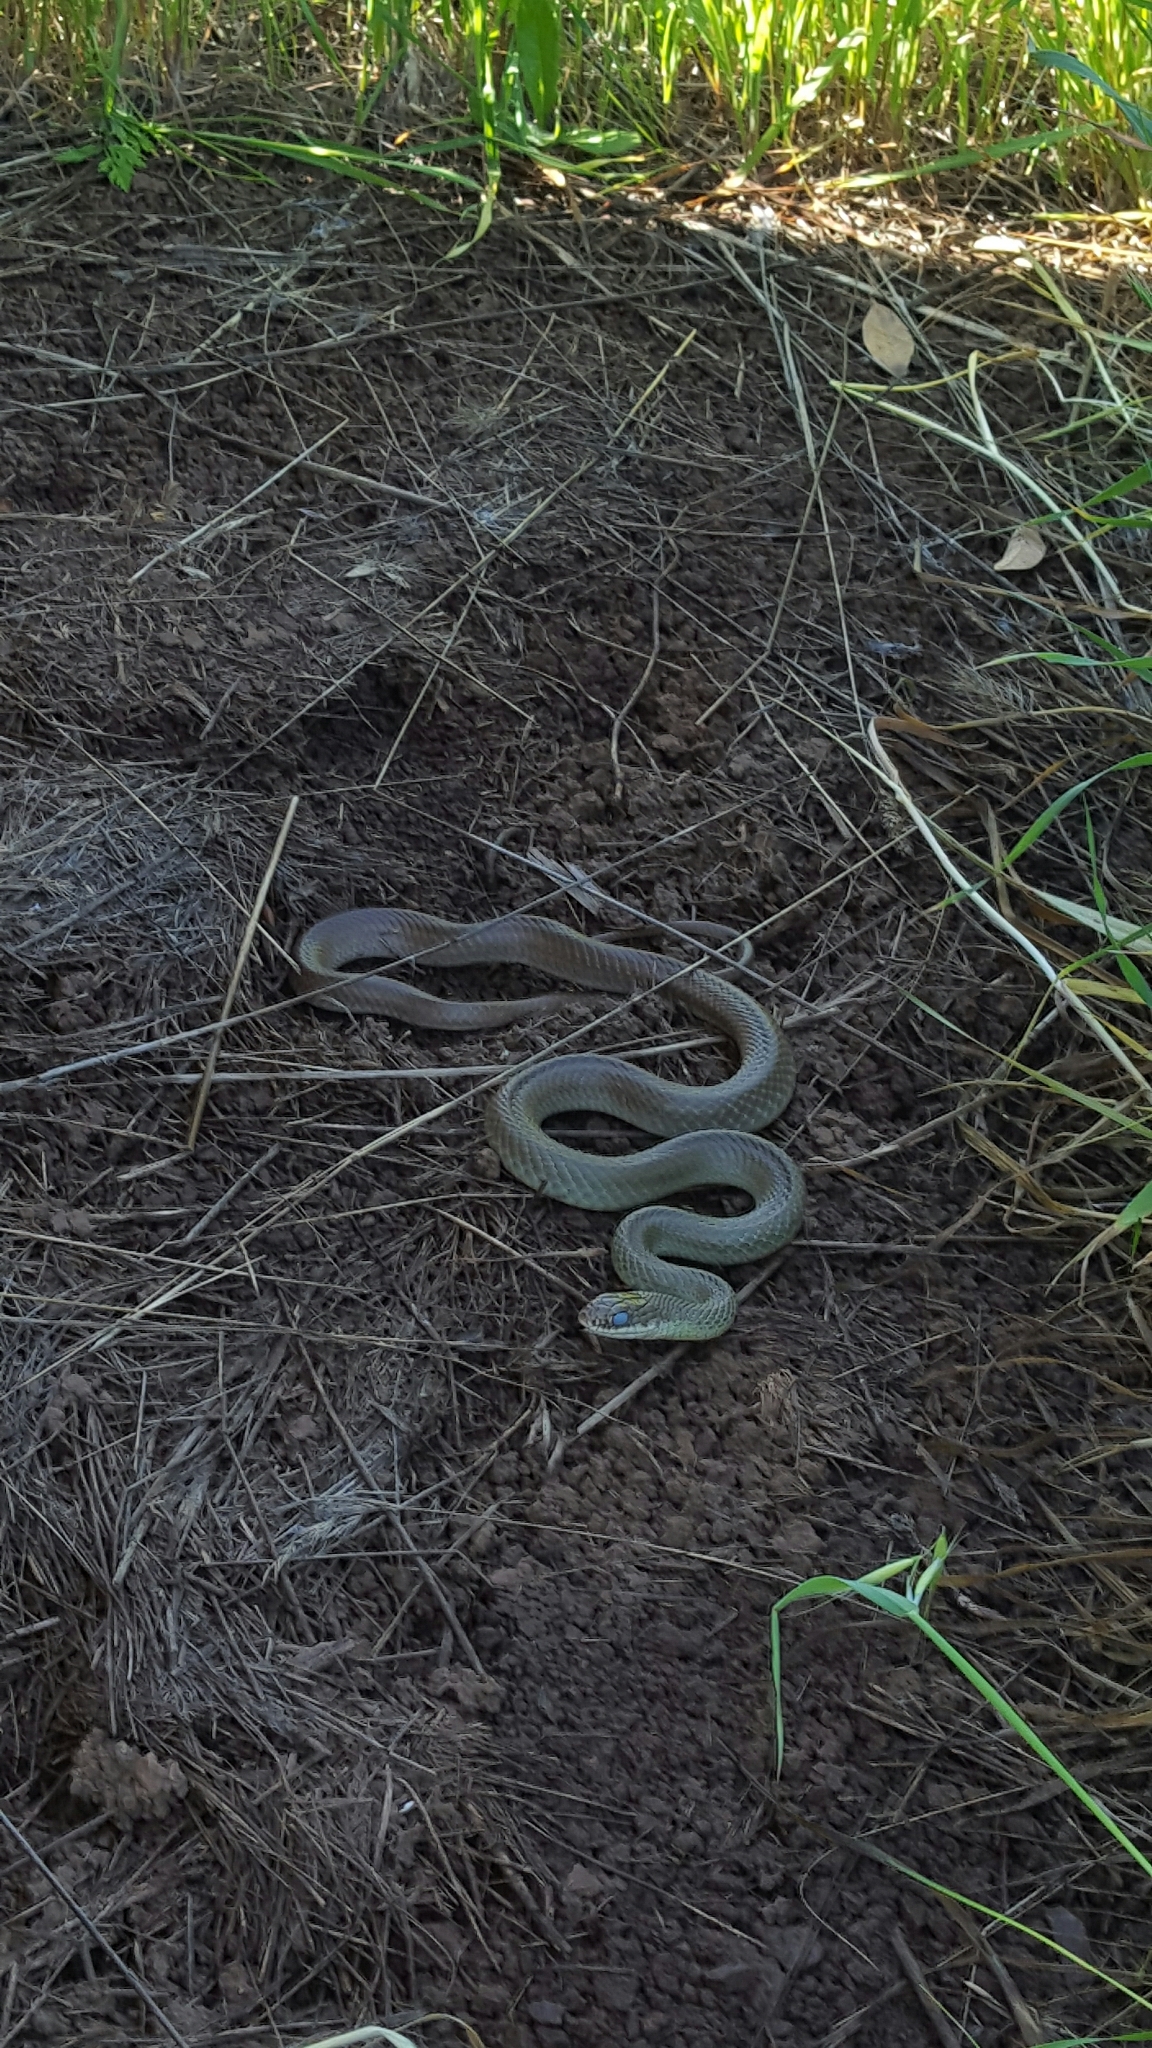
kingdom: Animalia
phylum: Chordata
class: Squamata
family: Colubridae
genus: Coluber
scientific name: Coluber constrictor
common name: Eastern racer
